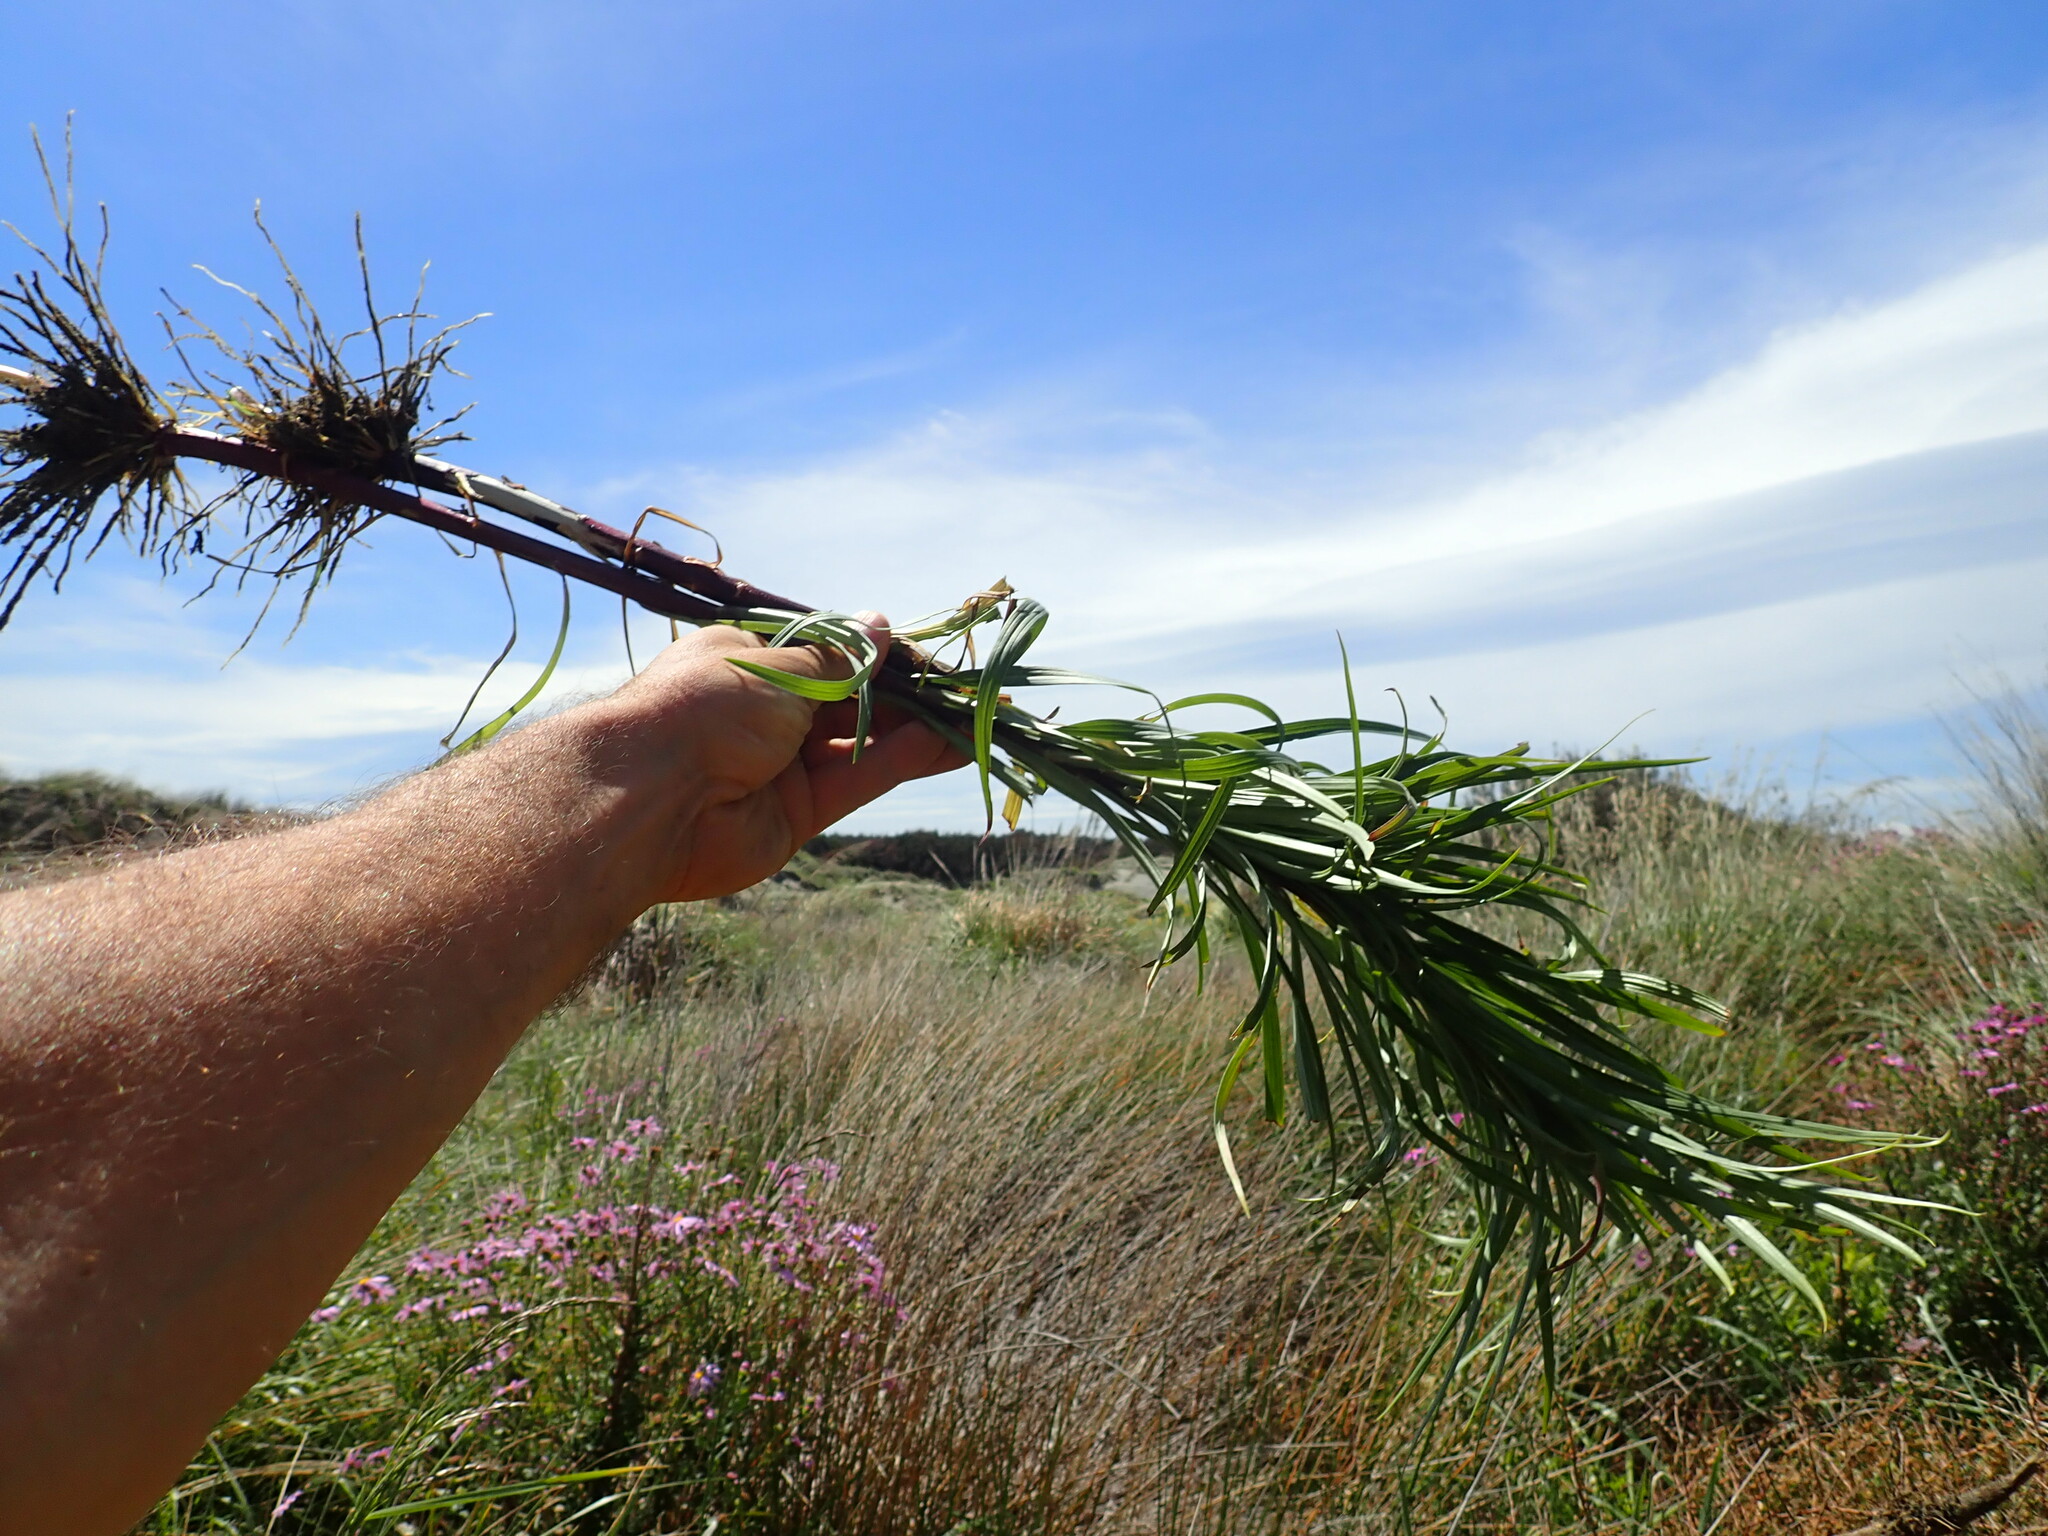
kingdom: Plantae
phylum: Tracheophyta
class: Liliopsida
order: Liliales
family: Liliaceae
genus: Lilium
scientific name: Lilium formosanum
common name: Formosa lily
